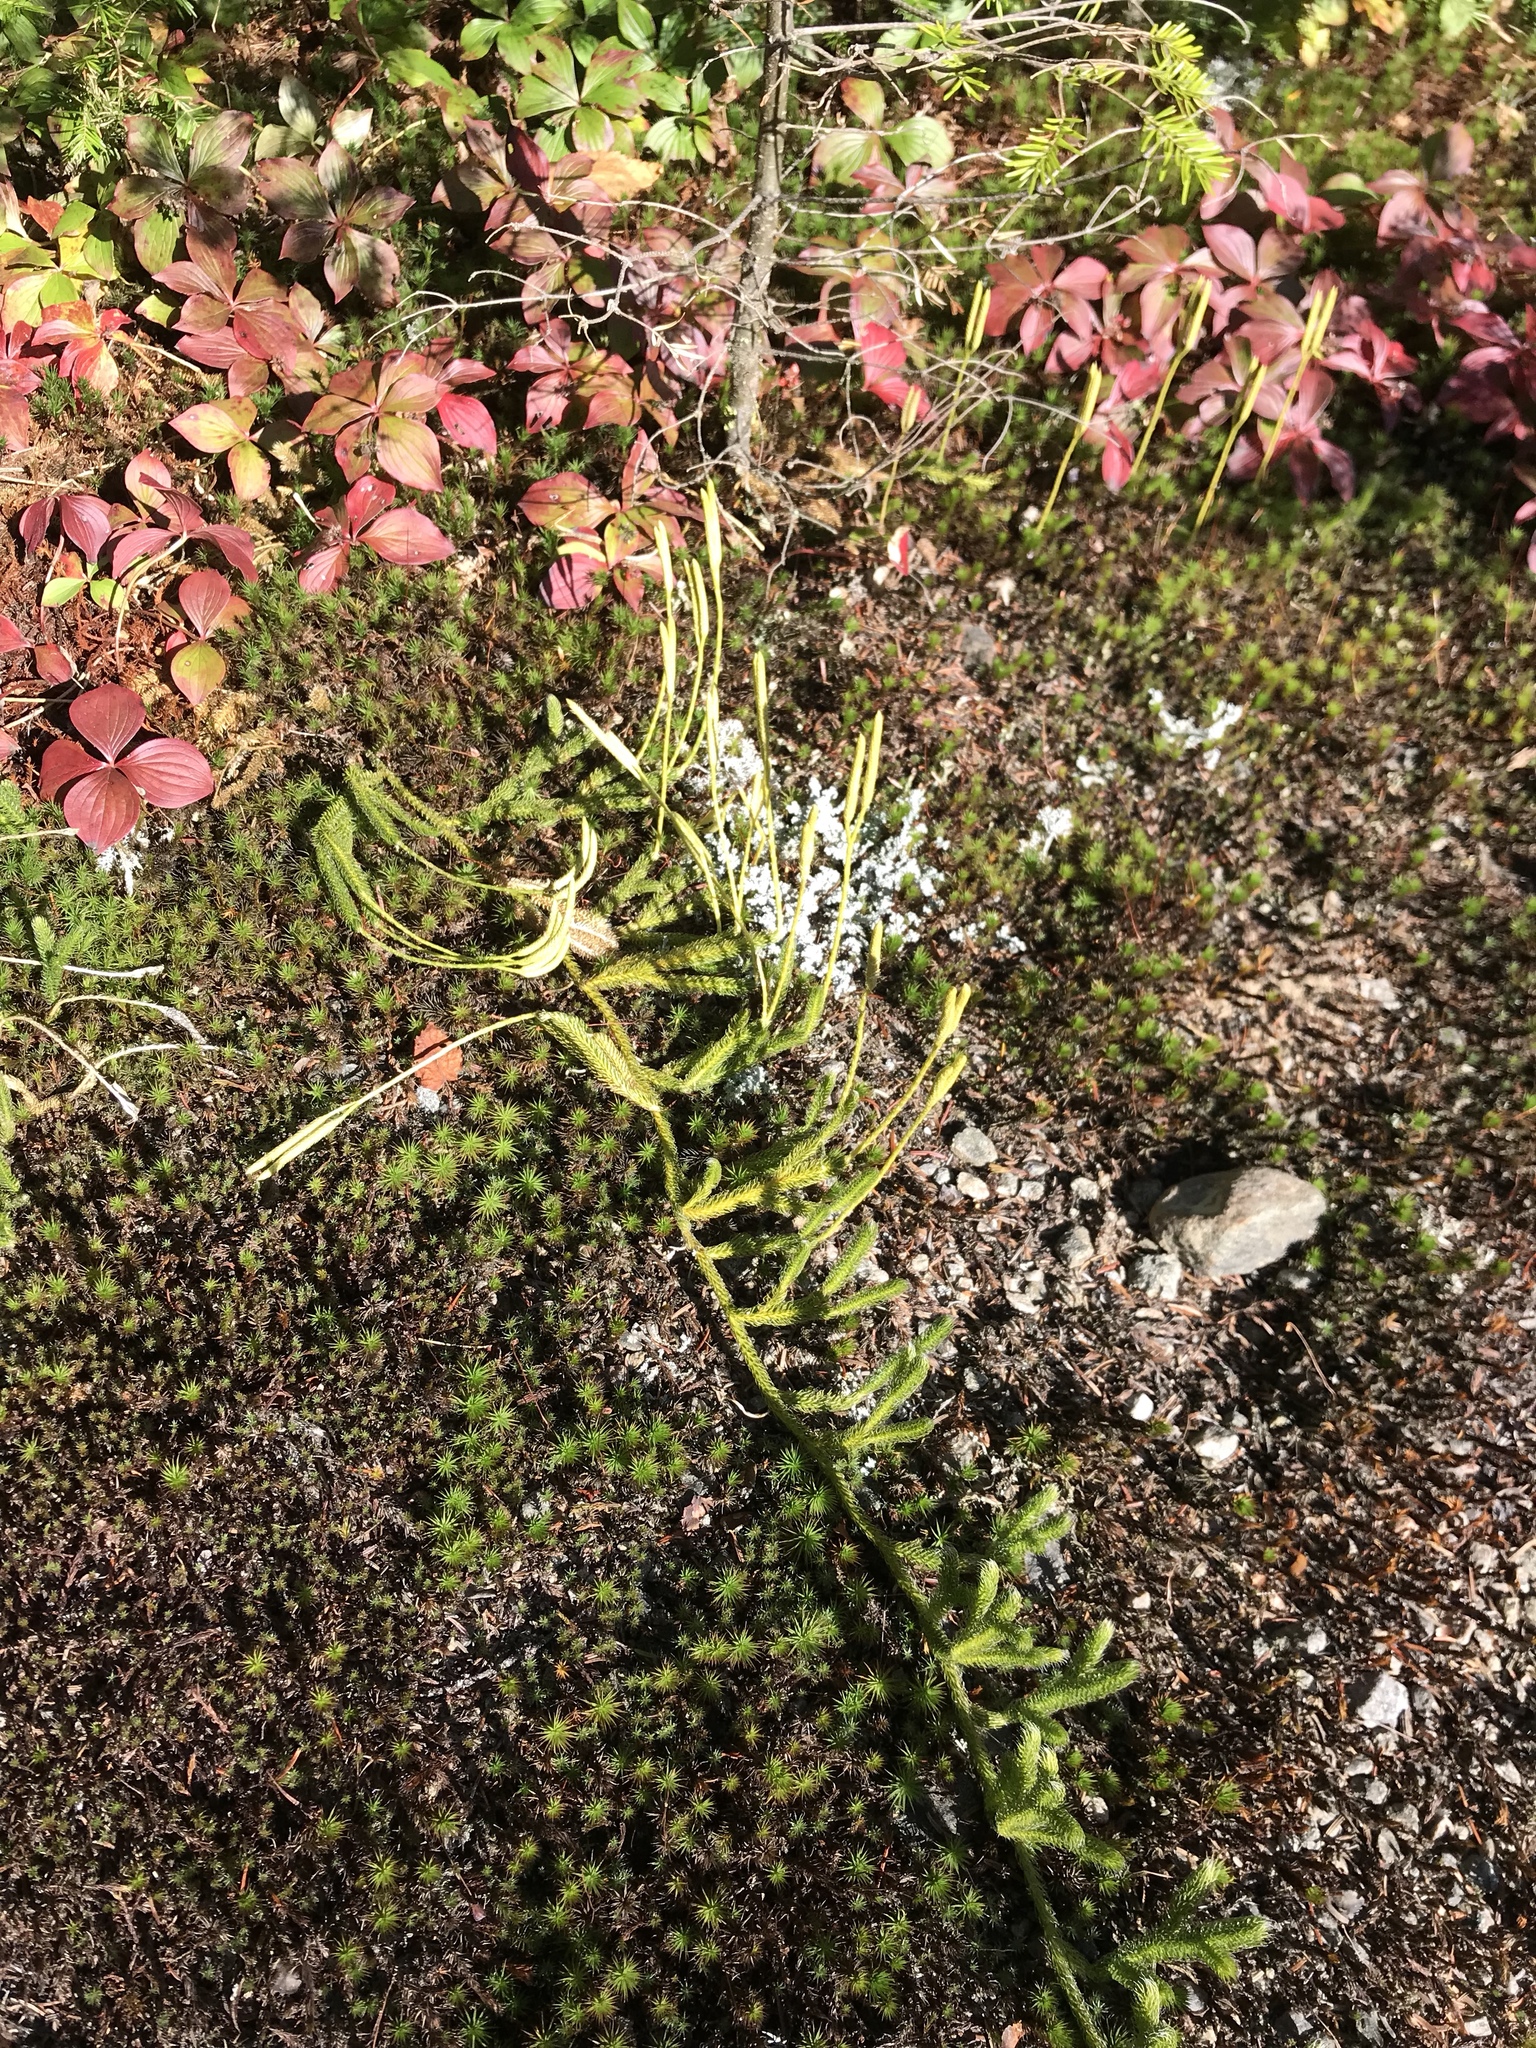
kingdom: Plantae
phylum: Tracheophyta
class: Lycopodiopsida
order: Lycopodiales
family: Lycopodiaceae
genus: Lycopodium
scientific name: Lycopodium lagopus
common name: One-cone clubmoss
